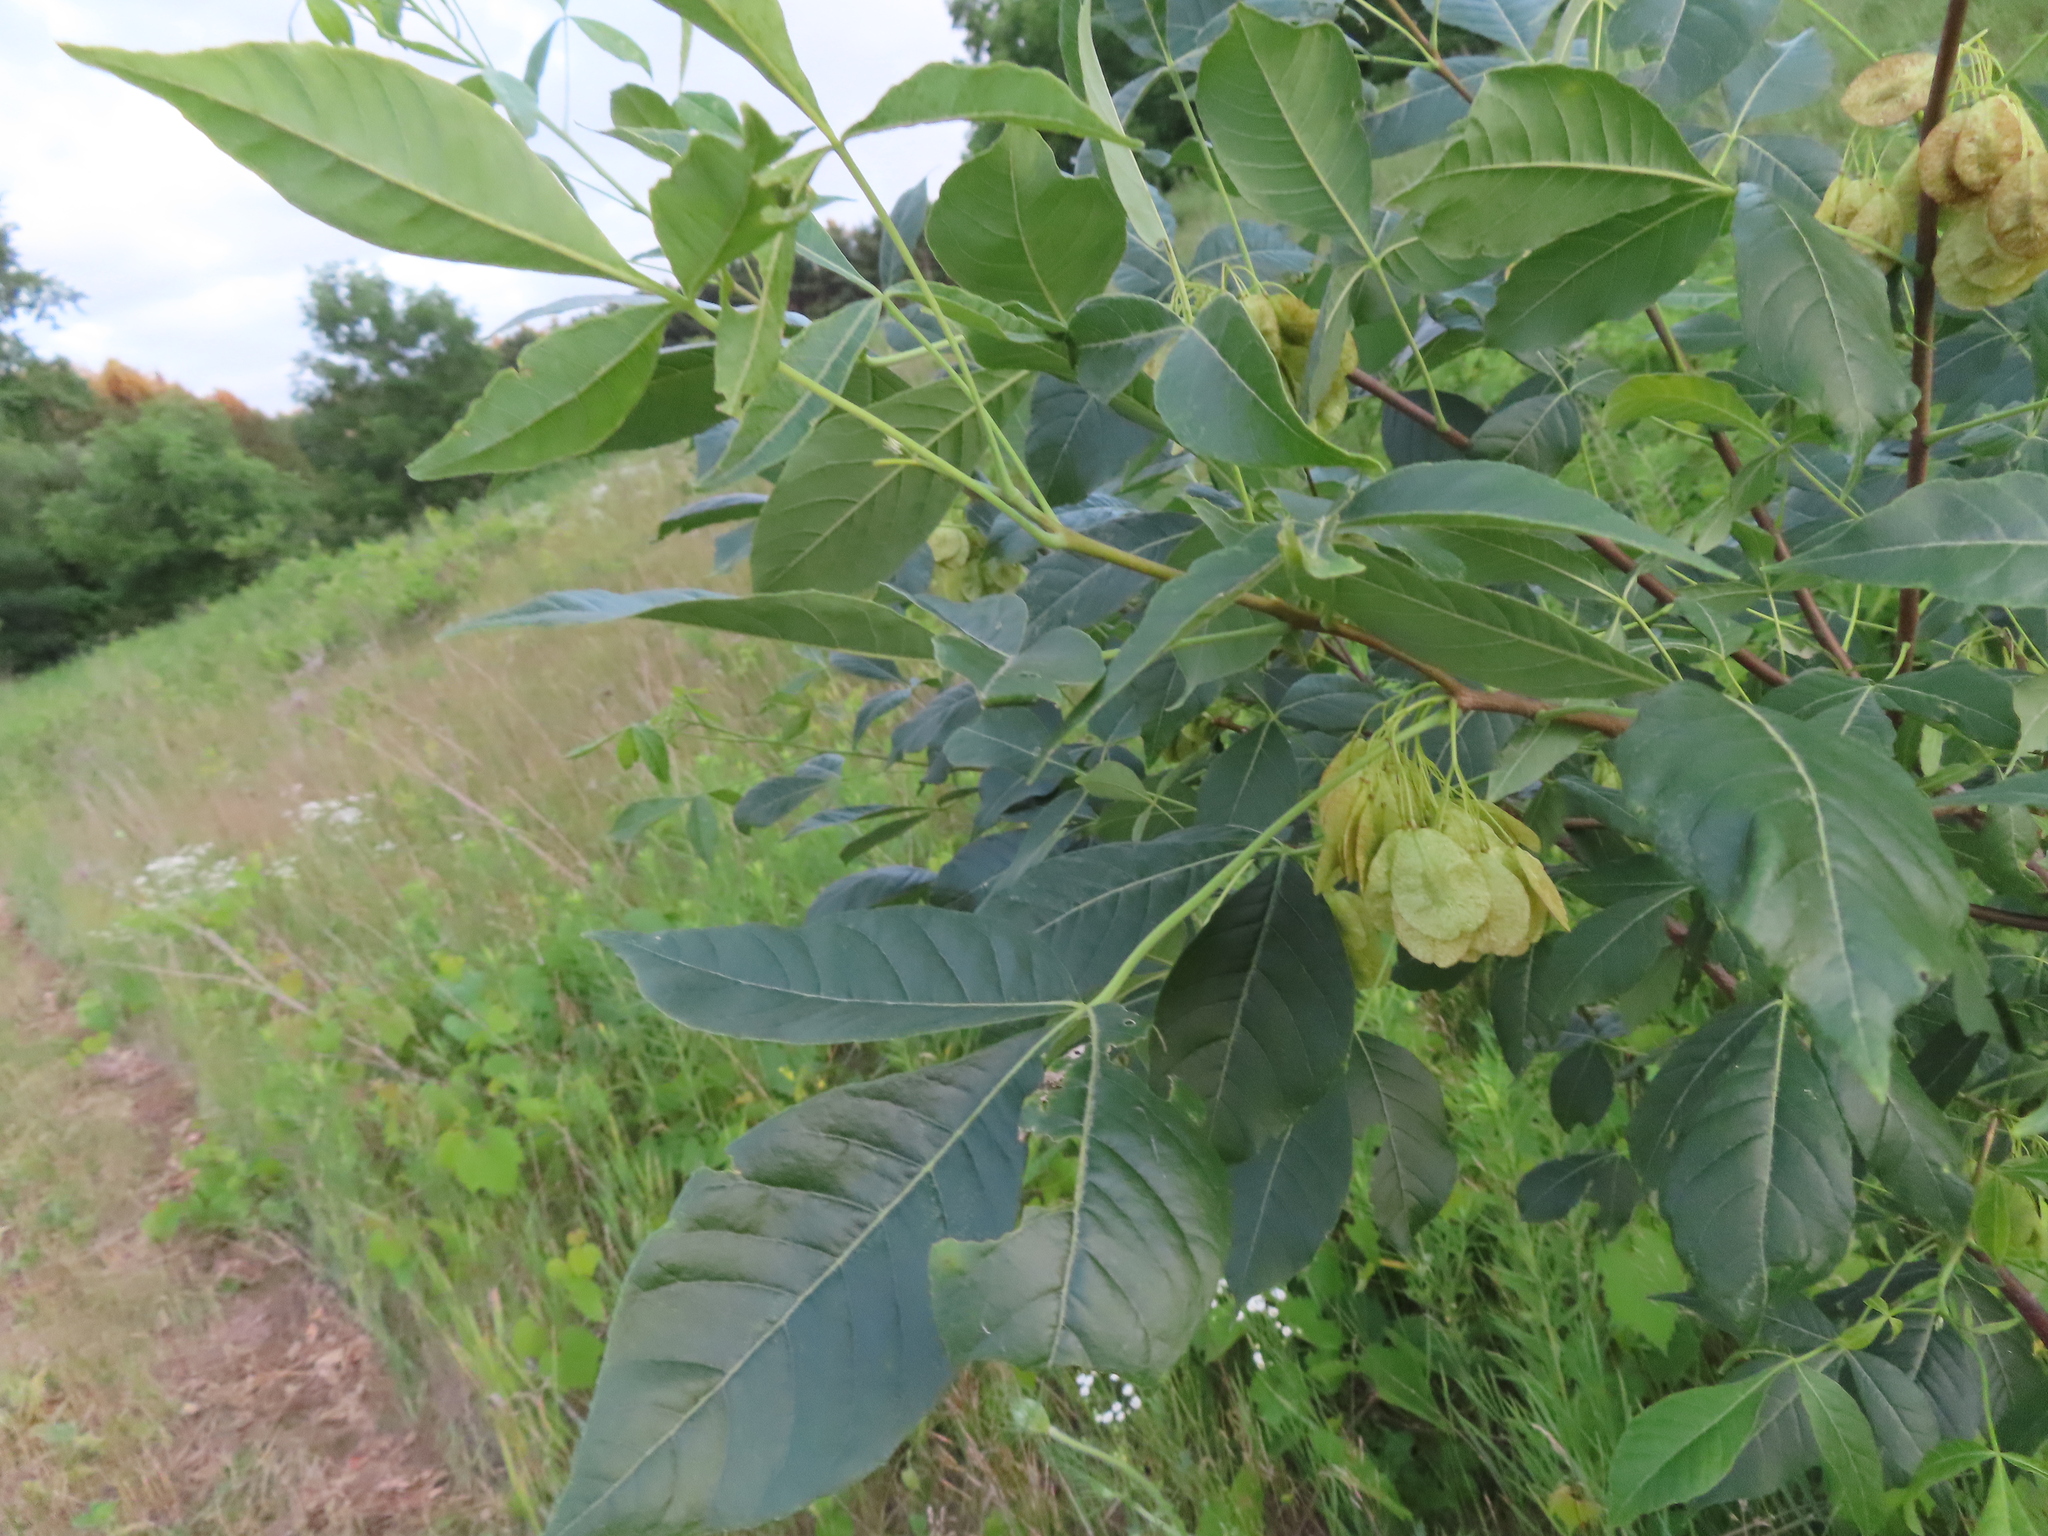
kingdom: Plantae
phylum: Tracheophyta
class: Magnoliopsida
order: Sapindales
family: Rutaceae
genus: Ptelea
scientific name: Ptelea trifoliata
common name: Common hop-tree
